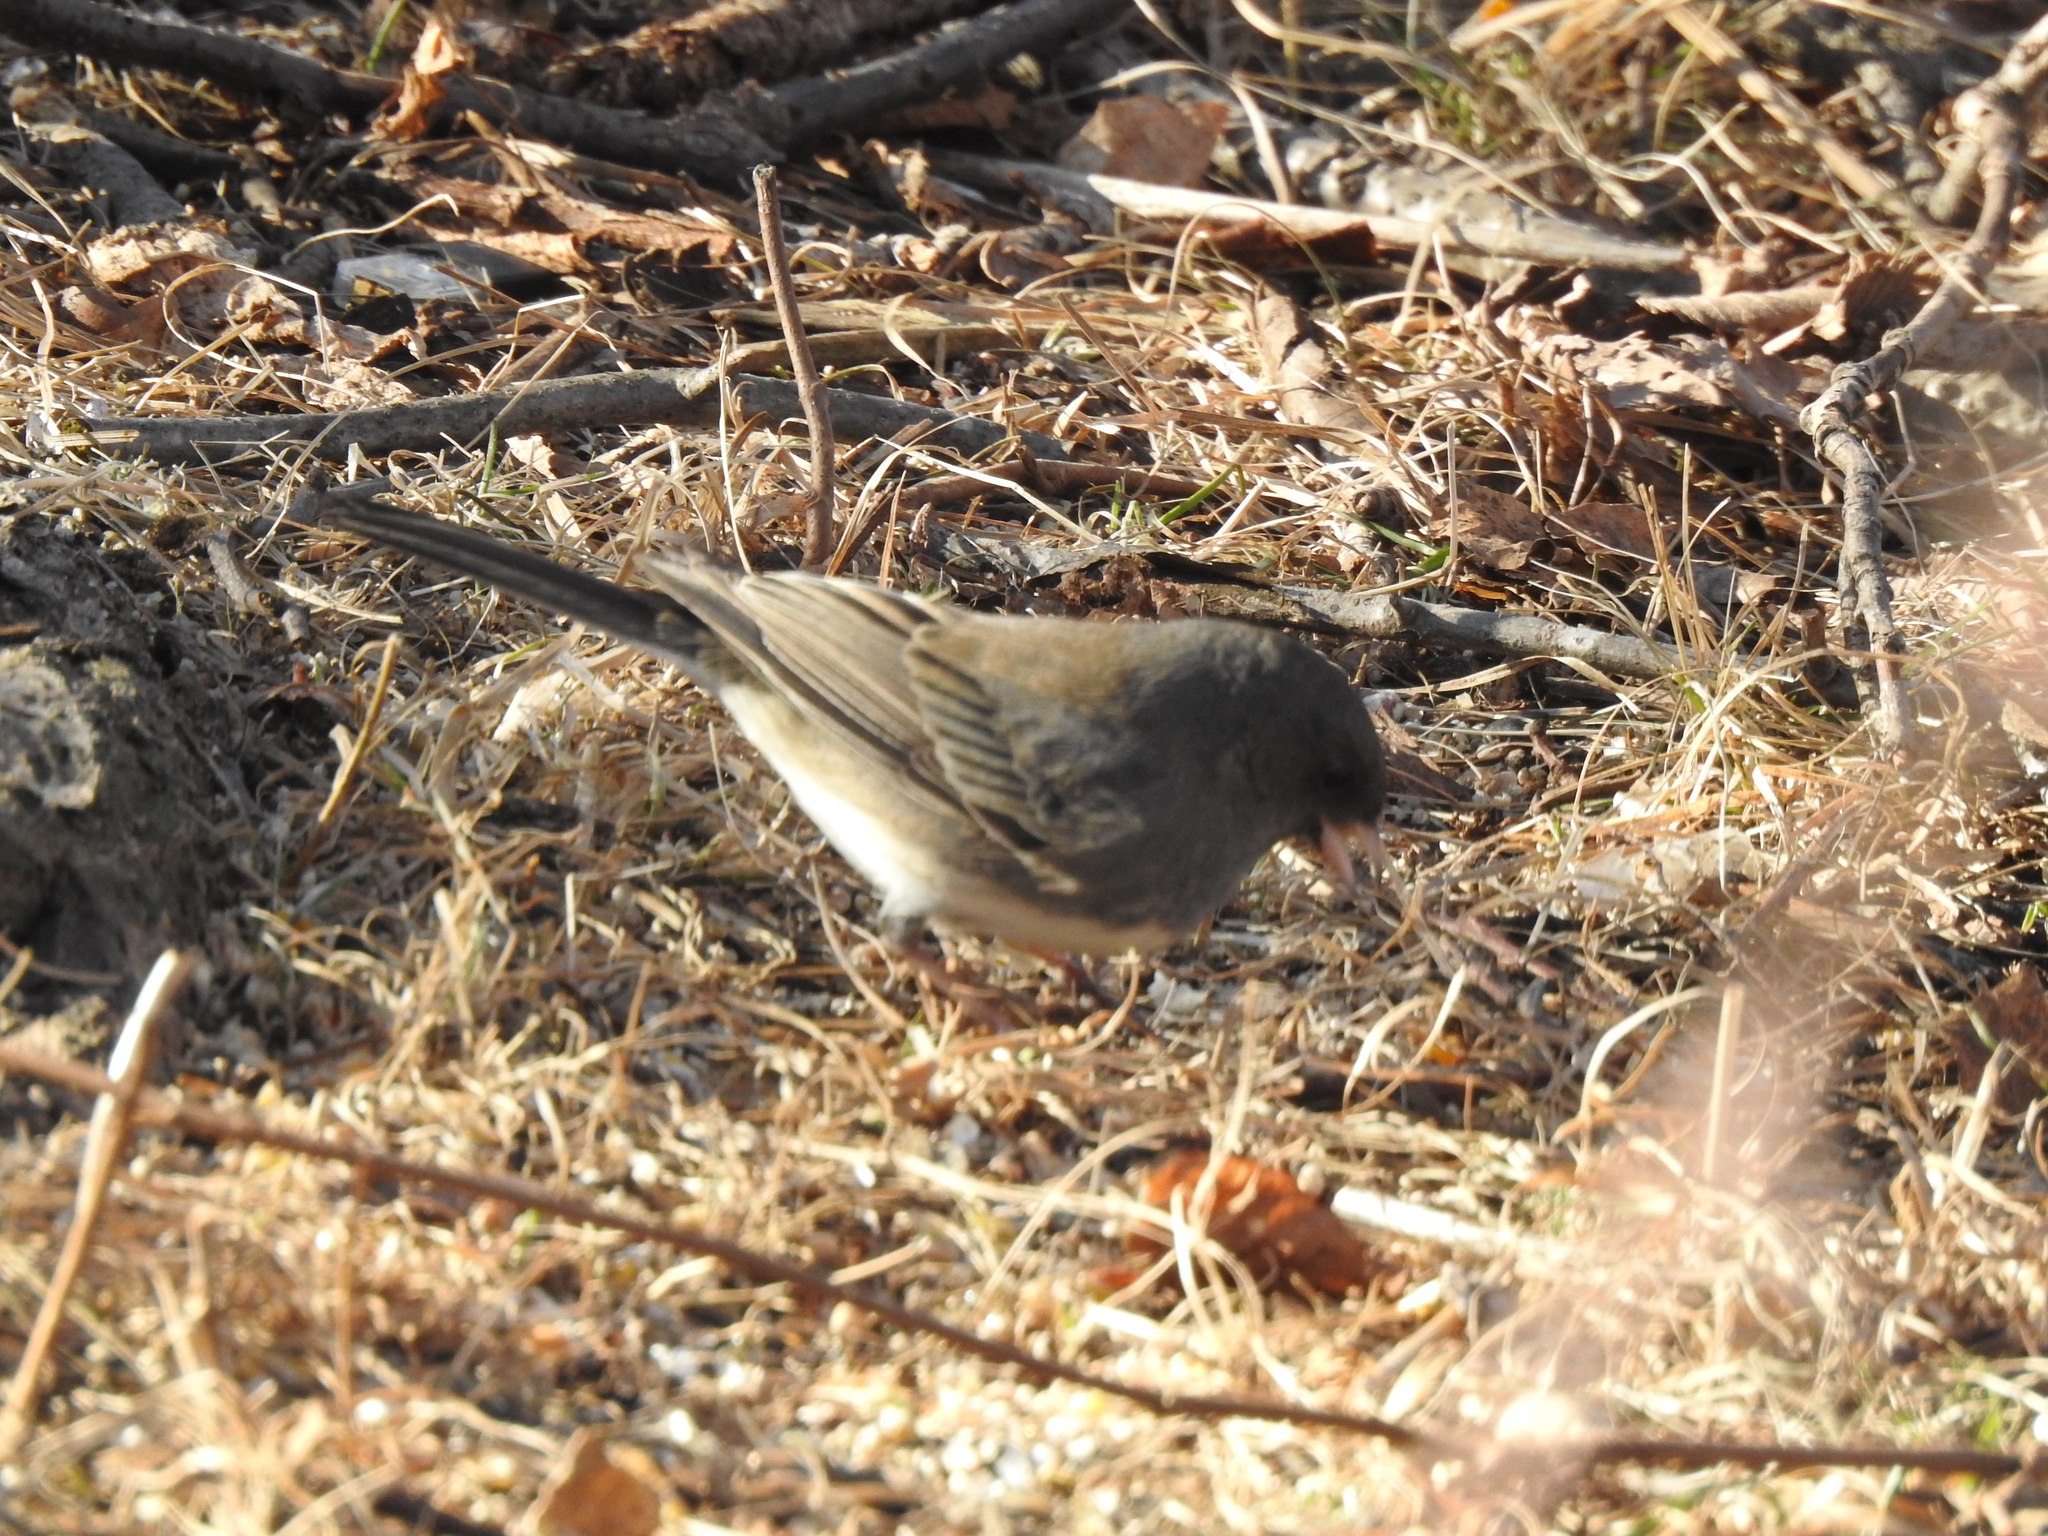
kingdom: Animalia
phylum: Chordata
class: Aves
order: Passeriformes
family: Passerellidae
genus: Junco
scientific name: Junco hyemalis
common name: Dark-eyed junco
